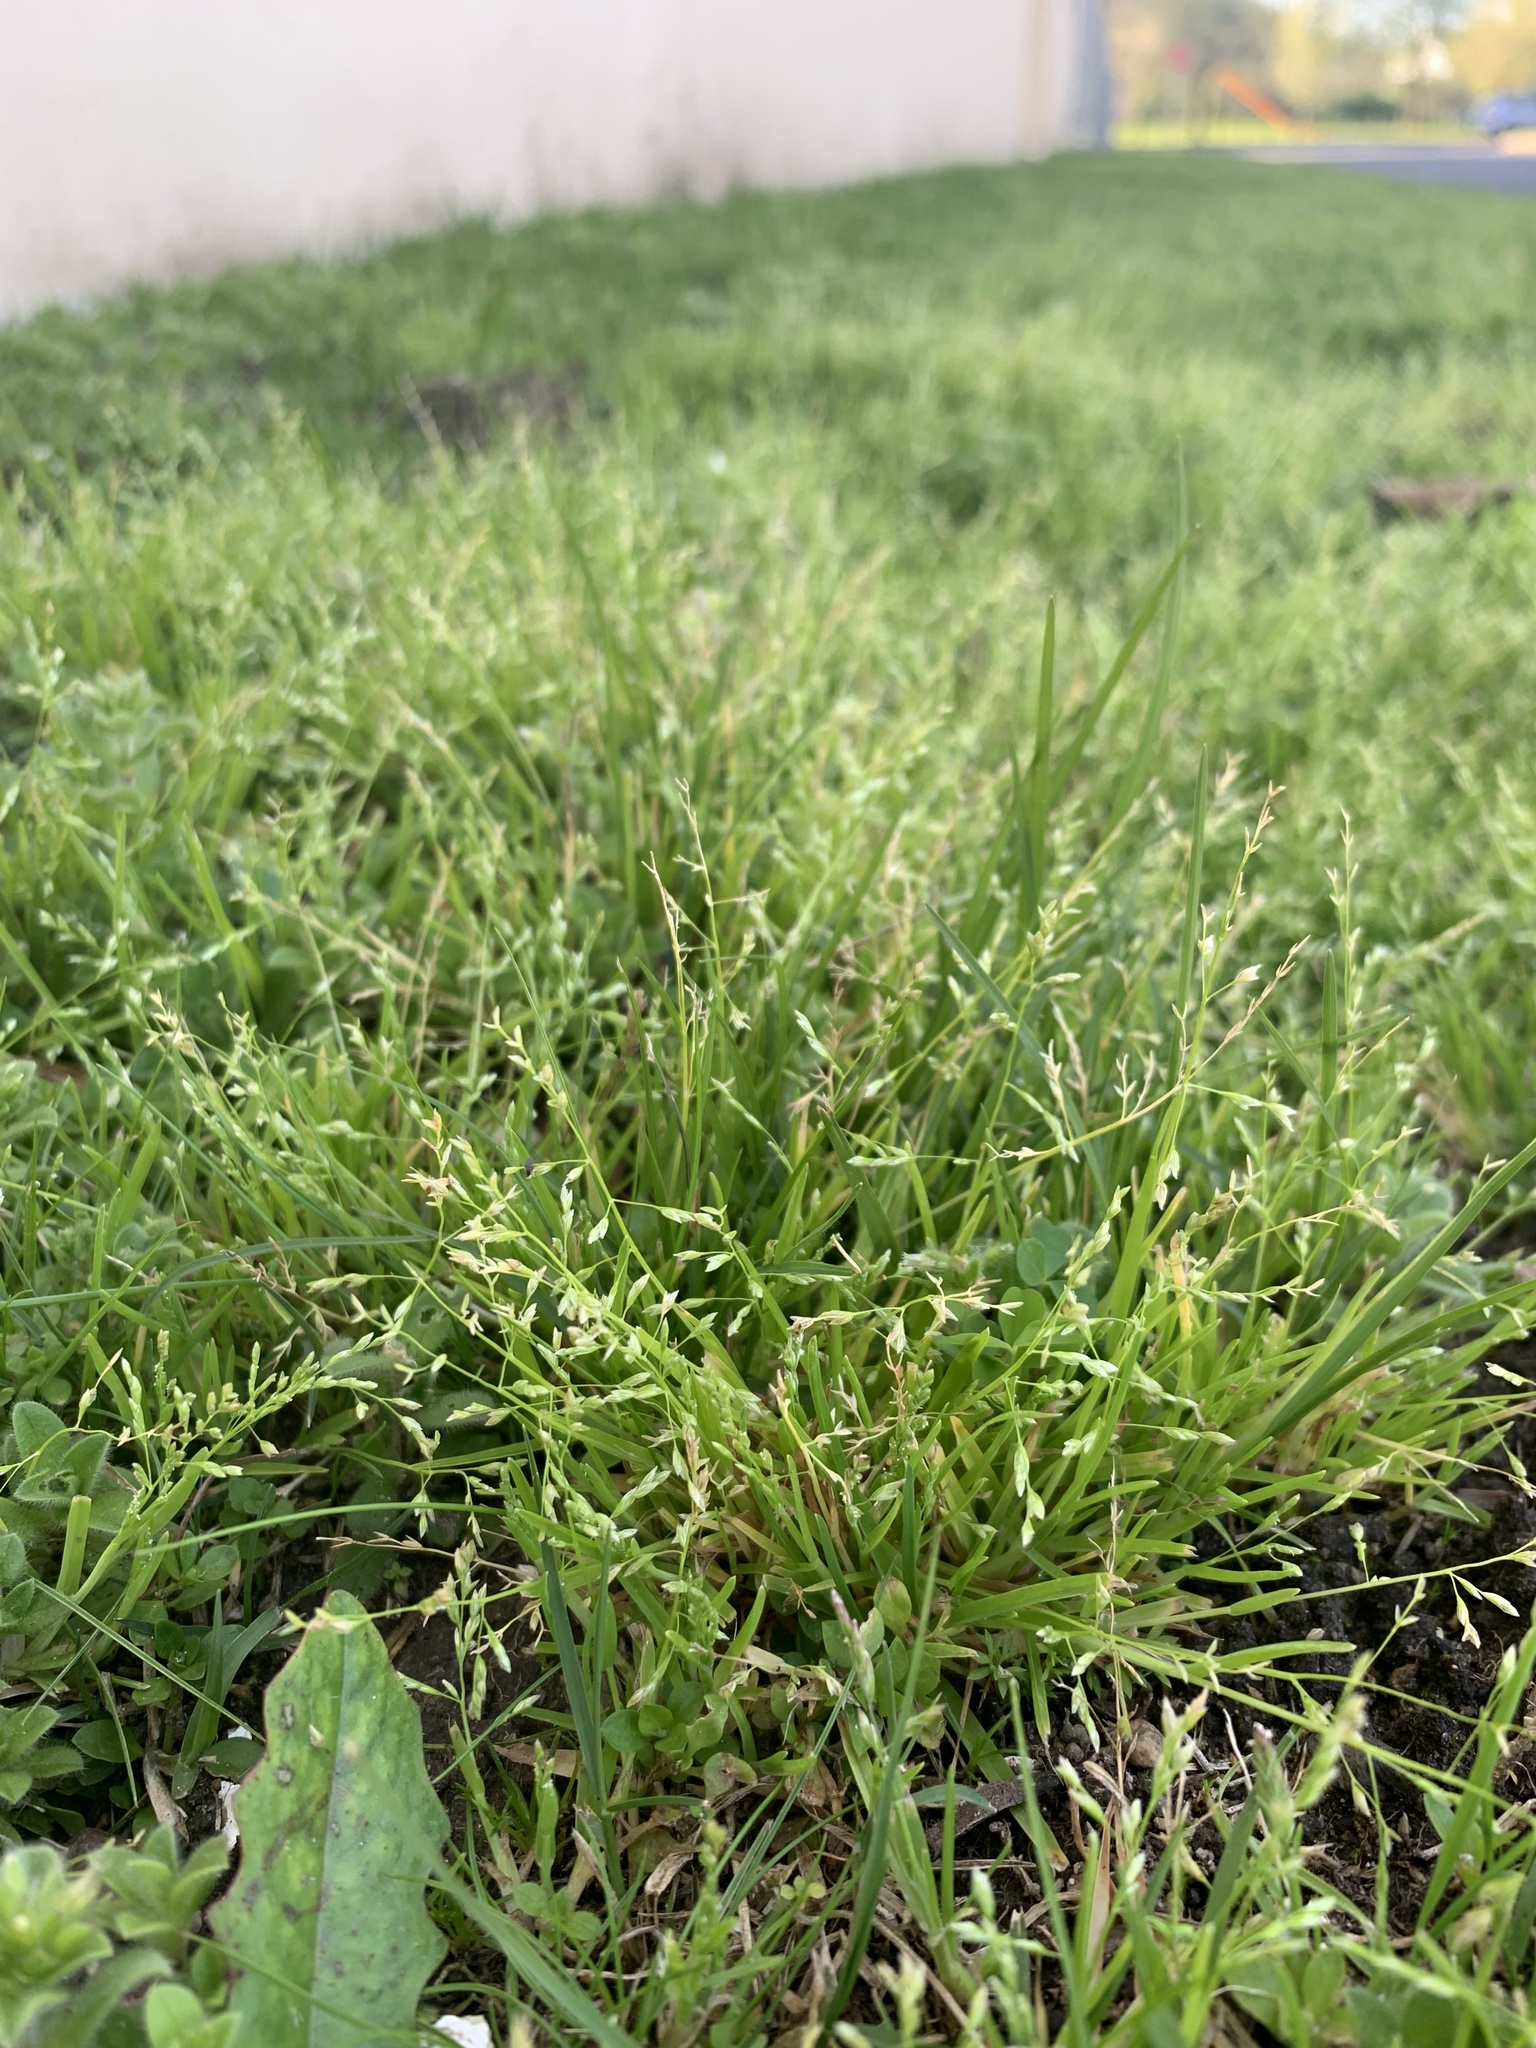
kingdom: Plantae
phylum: Tracheophyta
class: Liliopsida
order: Poales
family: Poaceae
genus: Poa
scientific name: Poa annua
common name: Annual bluegrass
